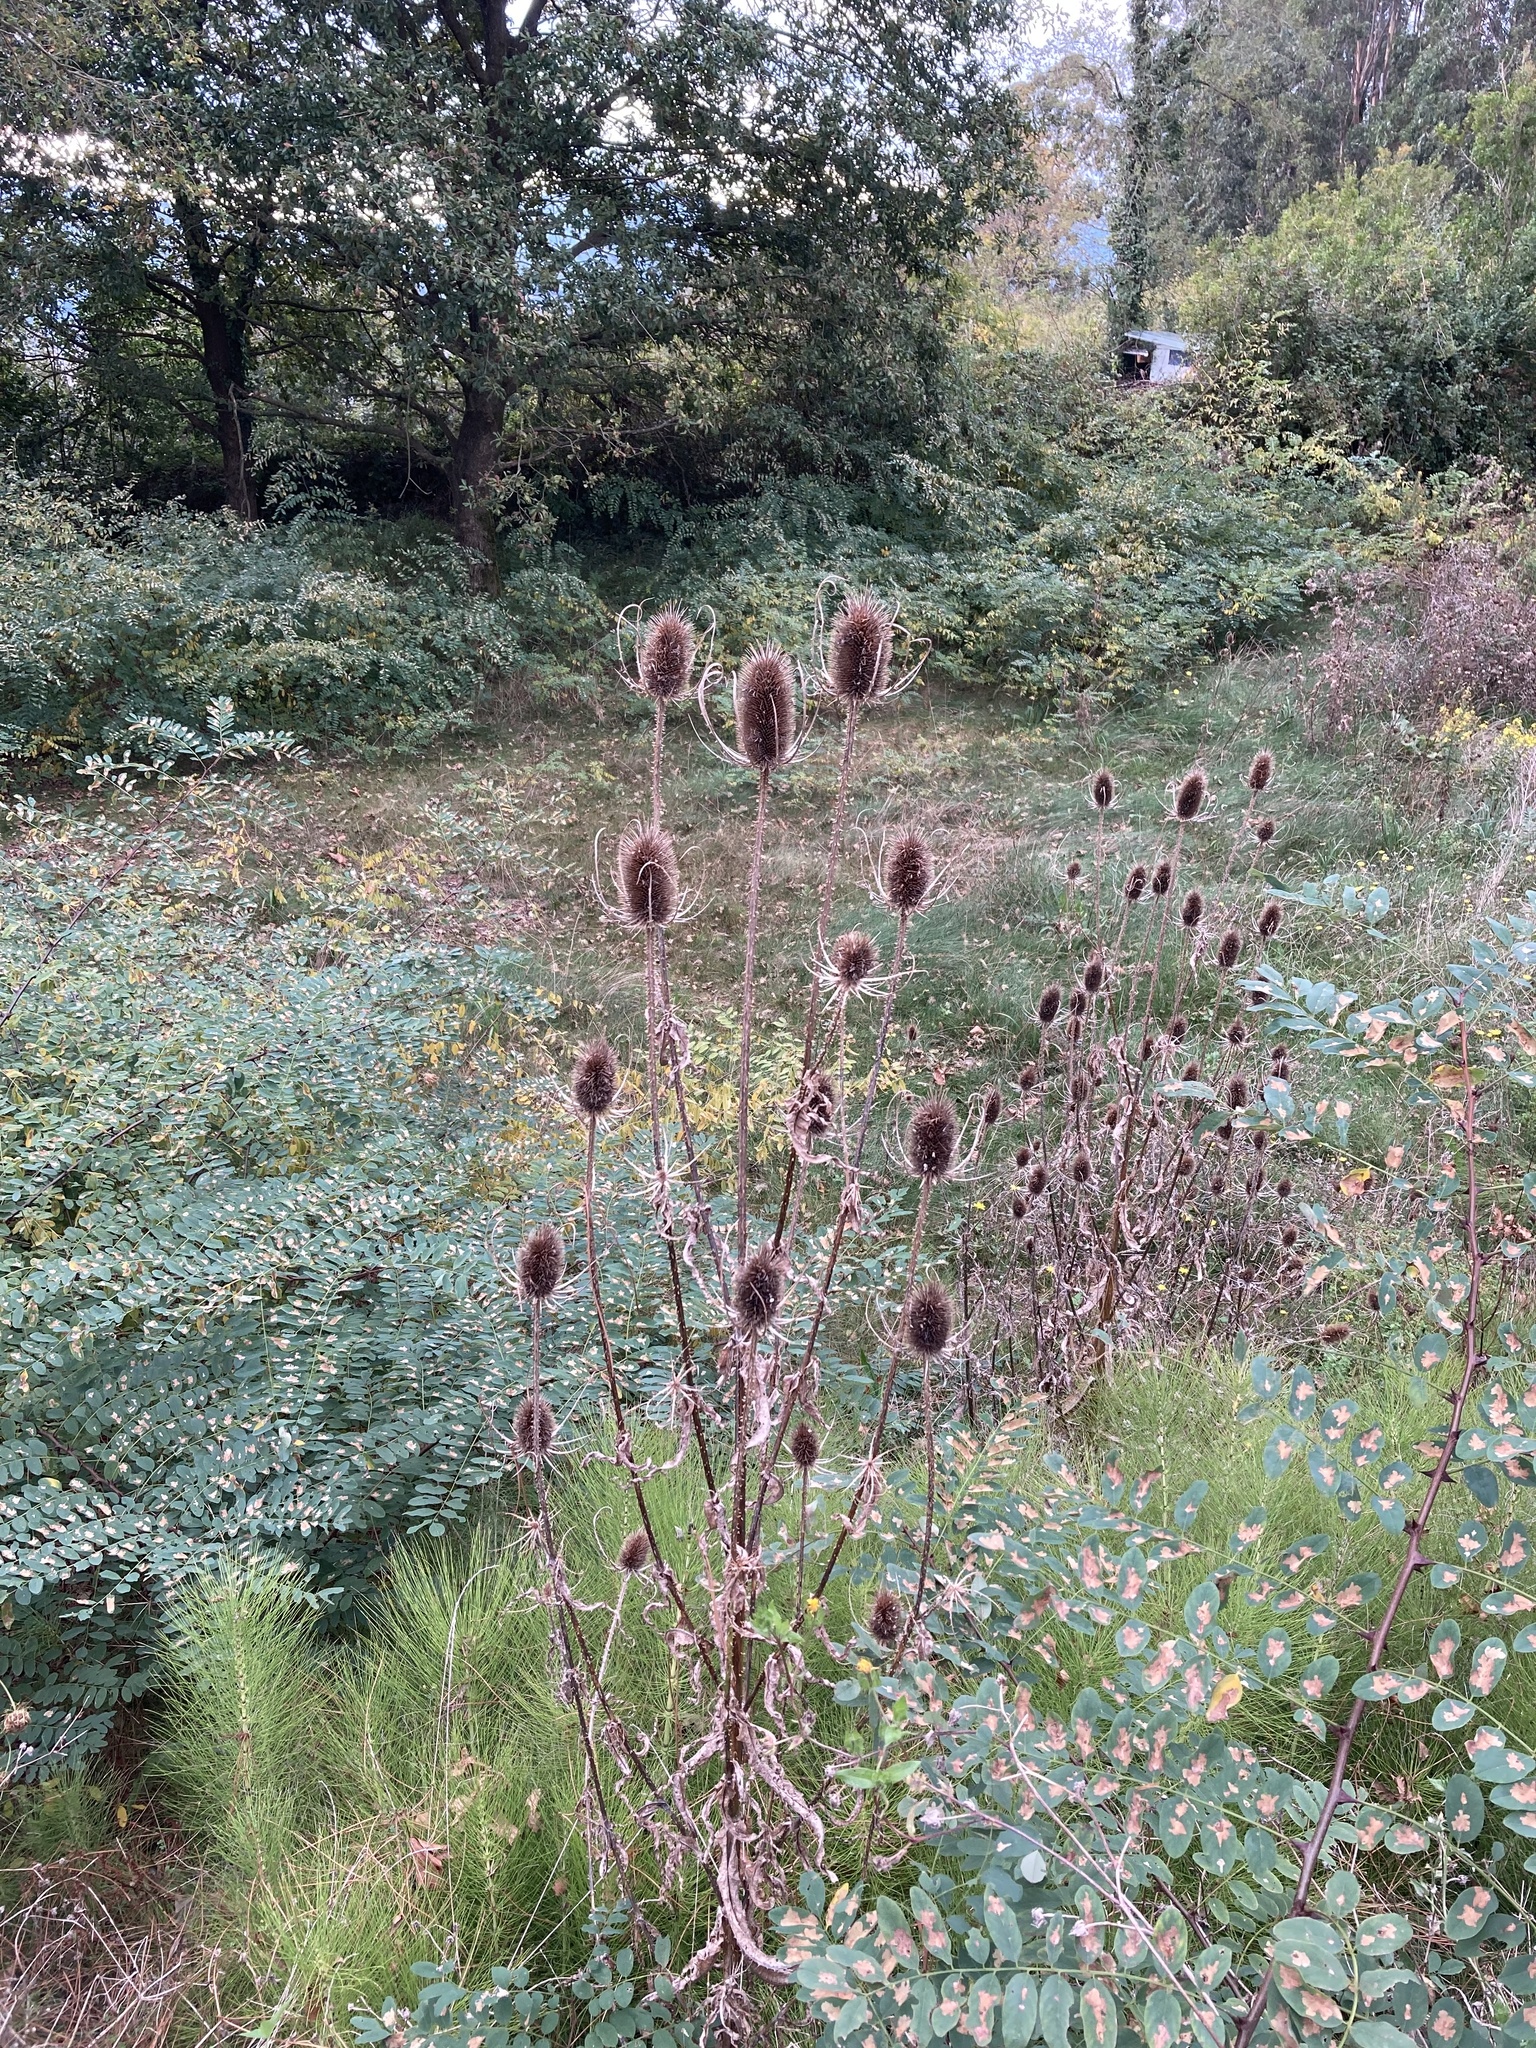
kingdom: Plantae
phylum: Tracheophyta
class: Magnoliopsida
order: Dipsacales
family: Caprifoliaceae
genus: Dipsacus
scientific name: Dipsacus fullonum
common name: Teasel
